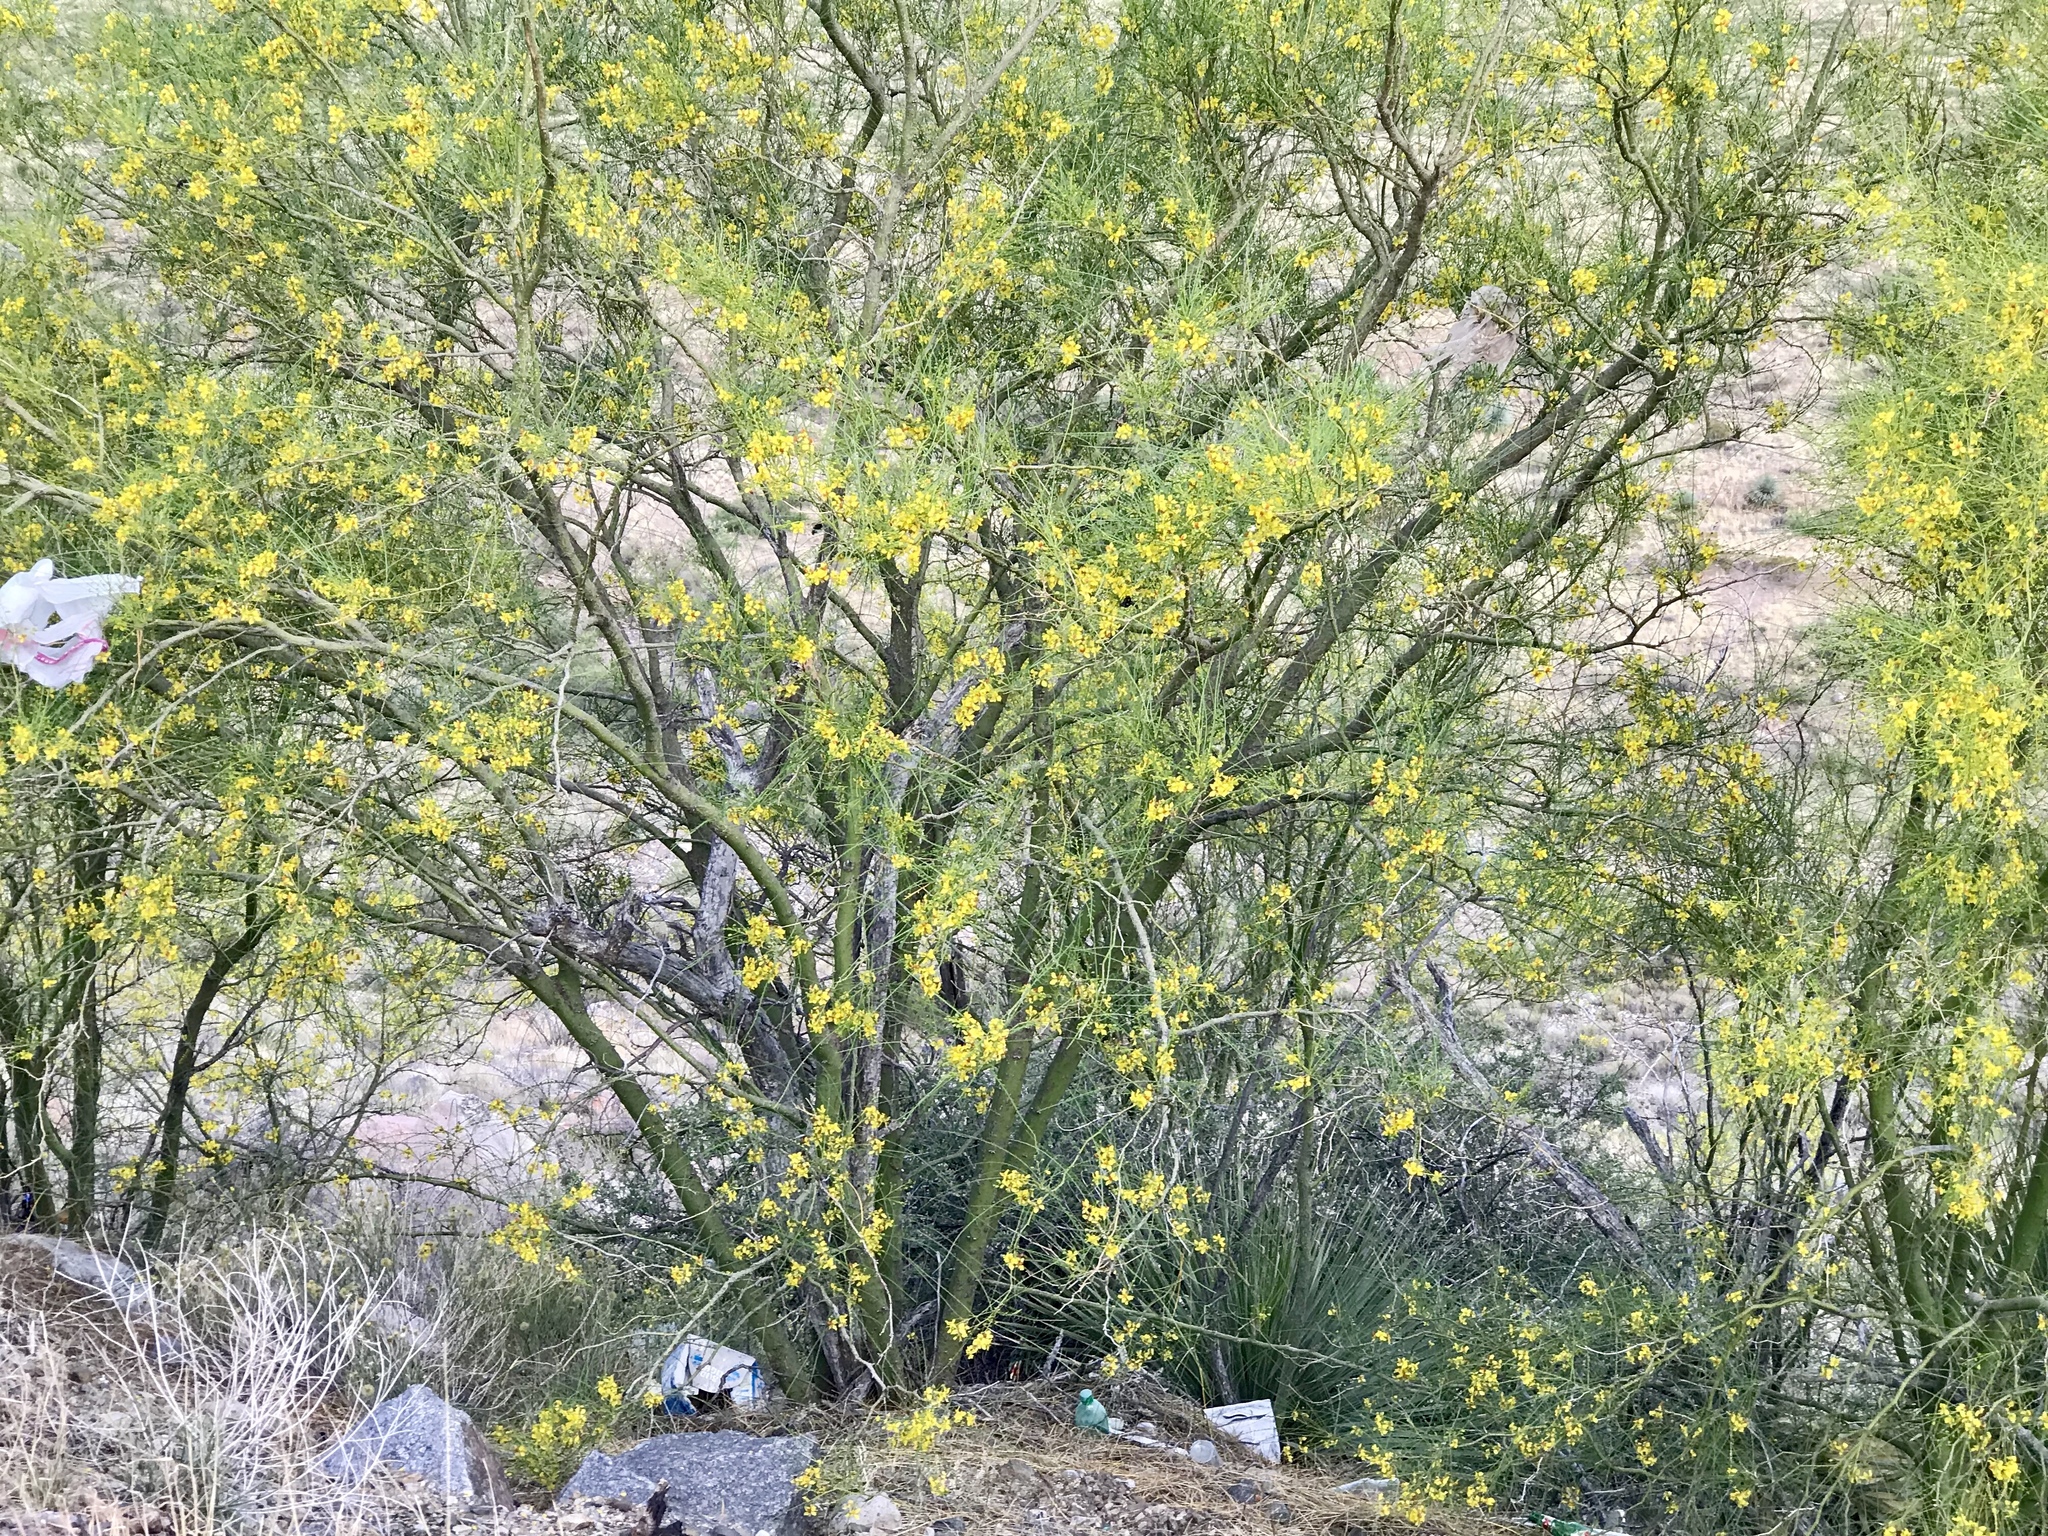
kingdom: Plantae
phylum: Tracheophyta
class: Magnoliopsida
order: Fabales
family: Fabaceae
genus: Parkinsonia
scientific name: Parkinsonia aculeata
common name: Jerusalem thorn
